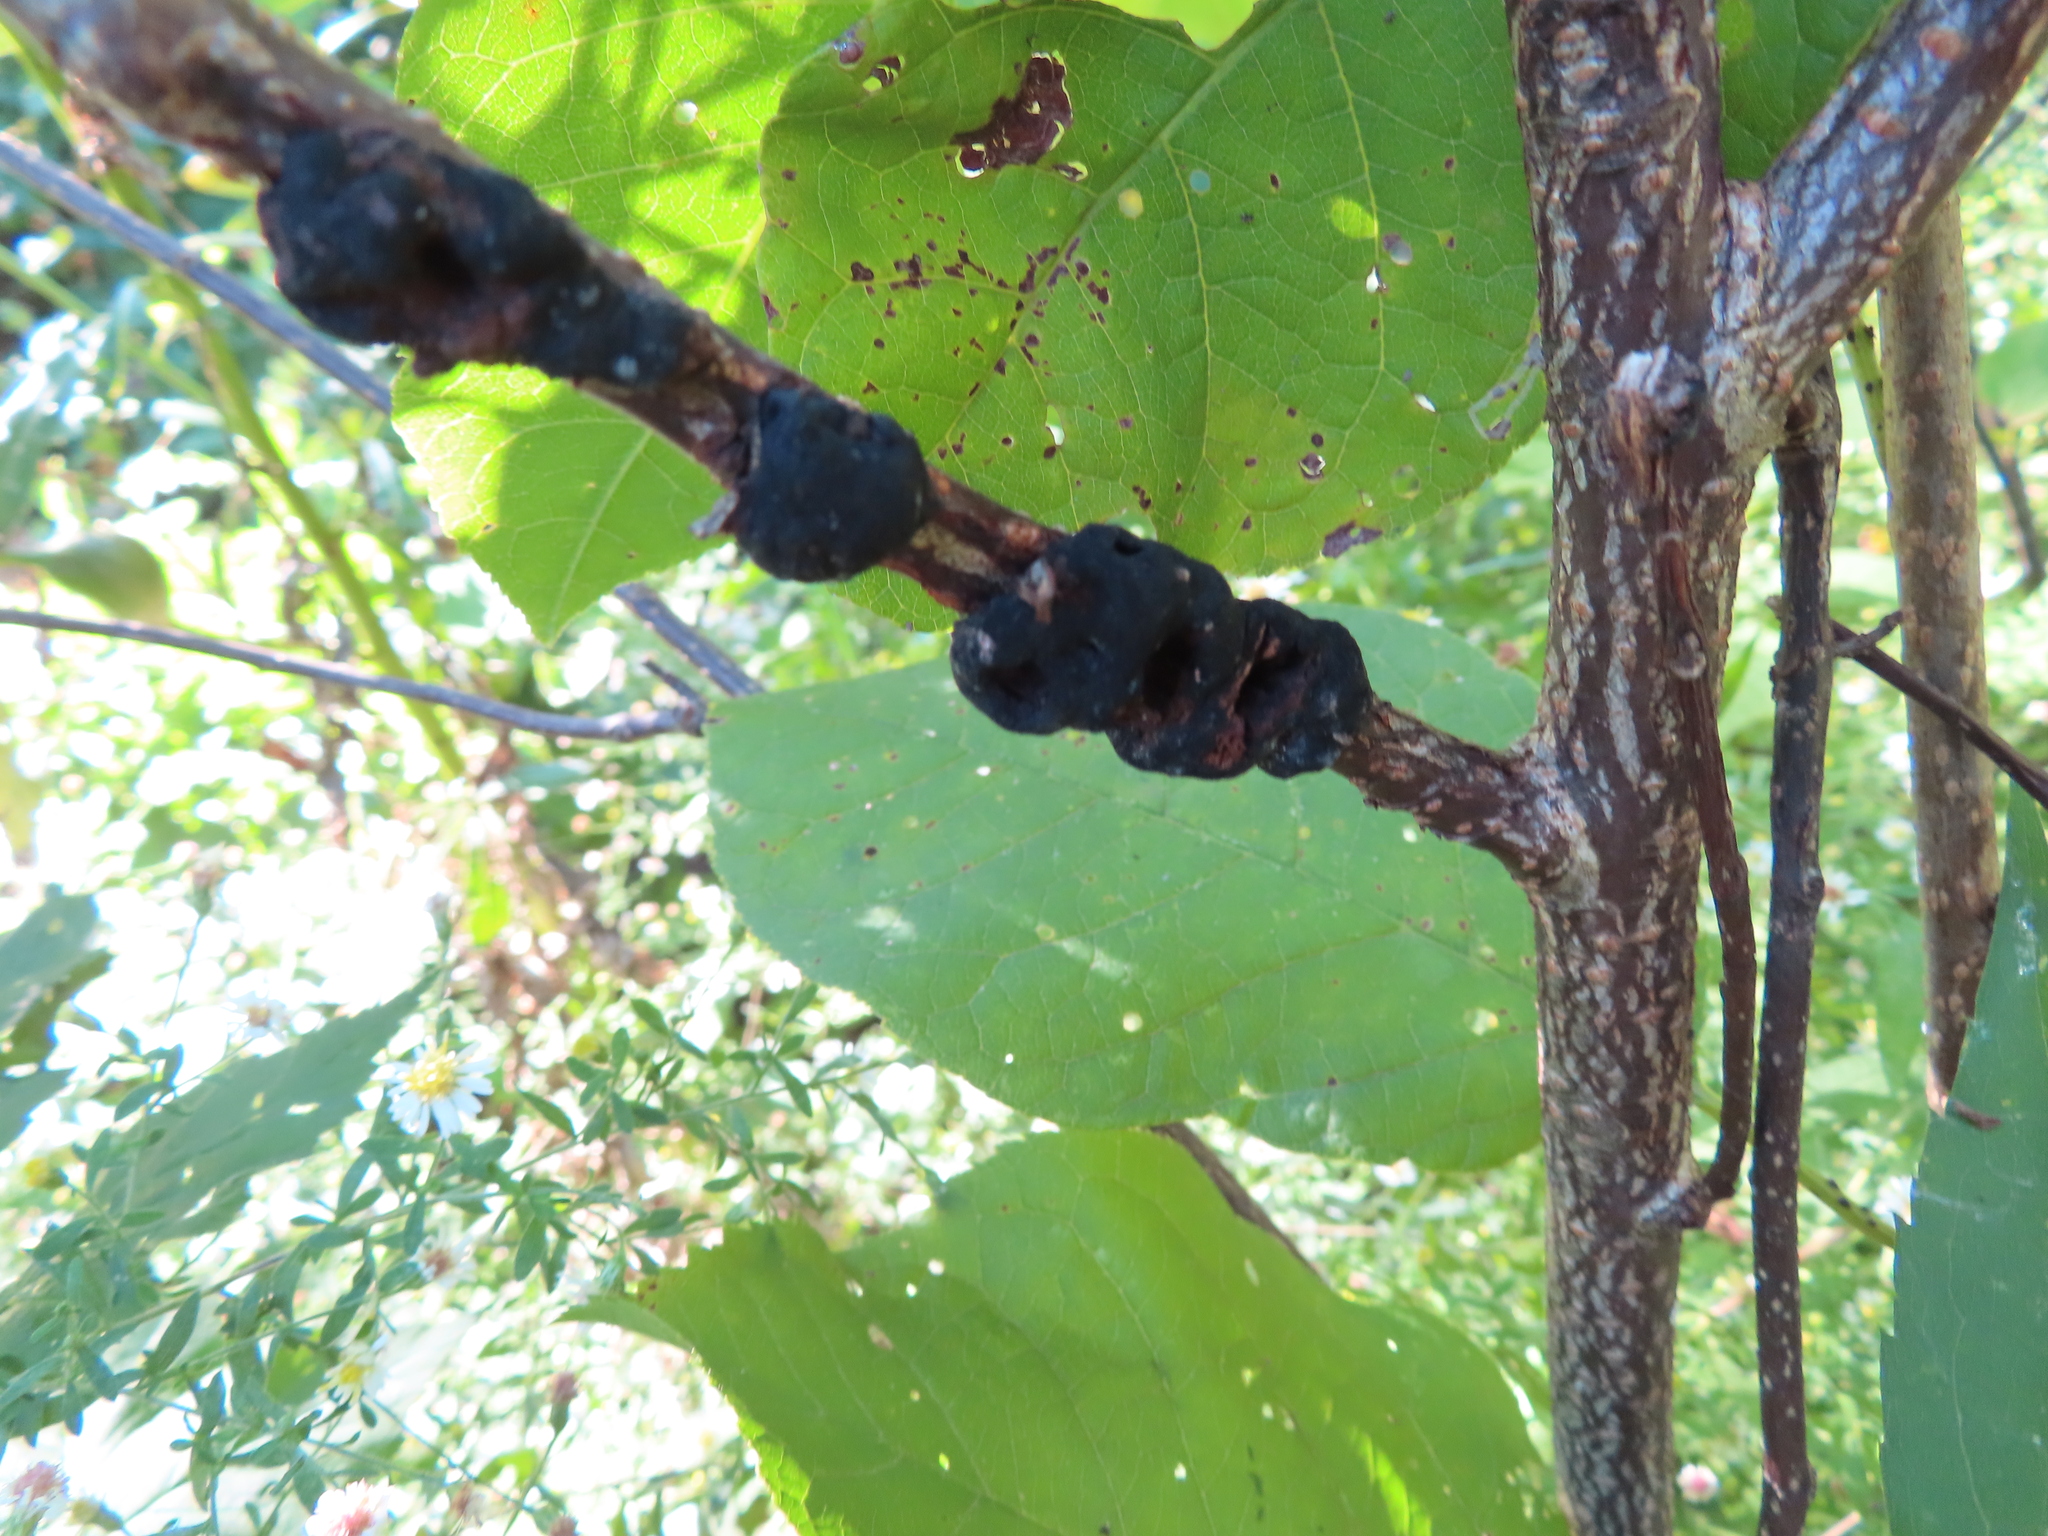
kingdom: Fungi
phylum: Ascomycota
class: Dothideomycetes
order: Venturiales
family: Venturiaceae
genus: Apiosporina
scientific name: Apiosporina morbosa
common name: Black knot
